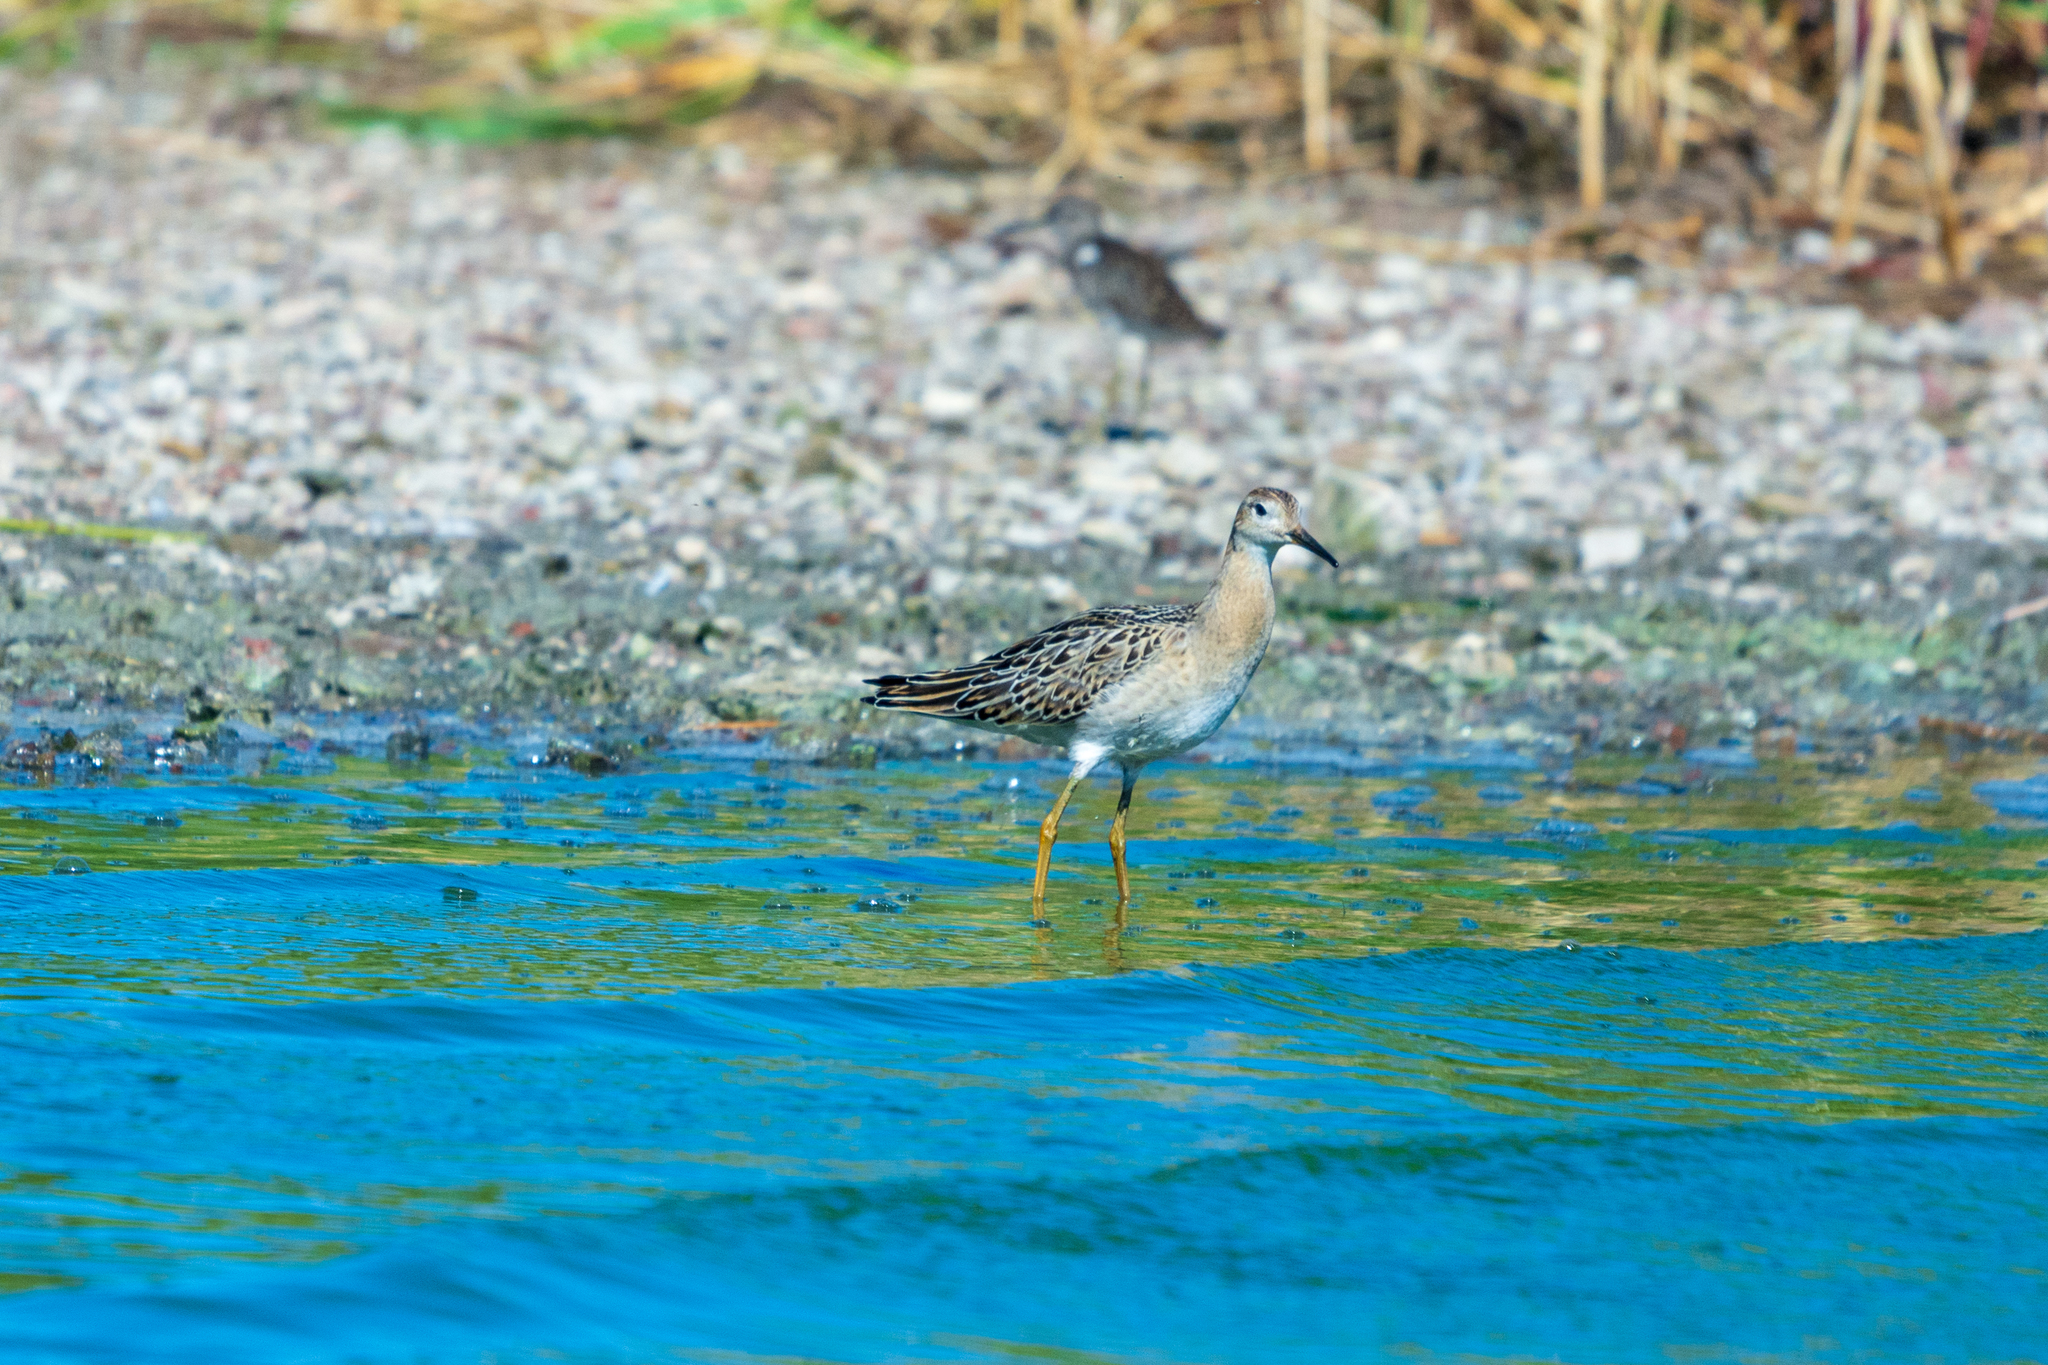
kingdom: Animalia
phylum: Chordata
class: Aves
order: Charadriiformes
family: Scolopacidae
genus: Calidris
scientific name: Calidris pugnax
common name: Ruff
